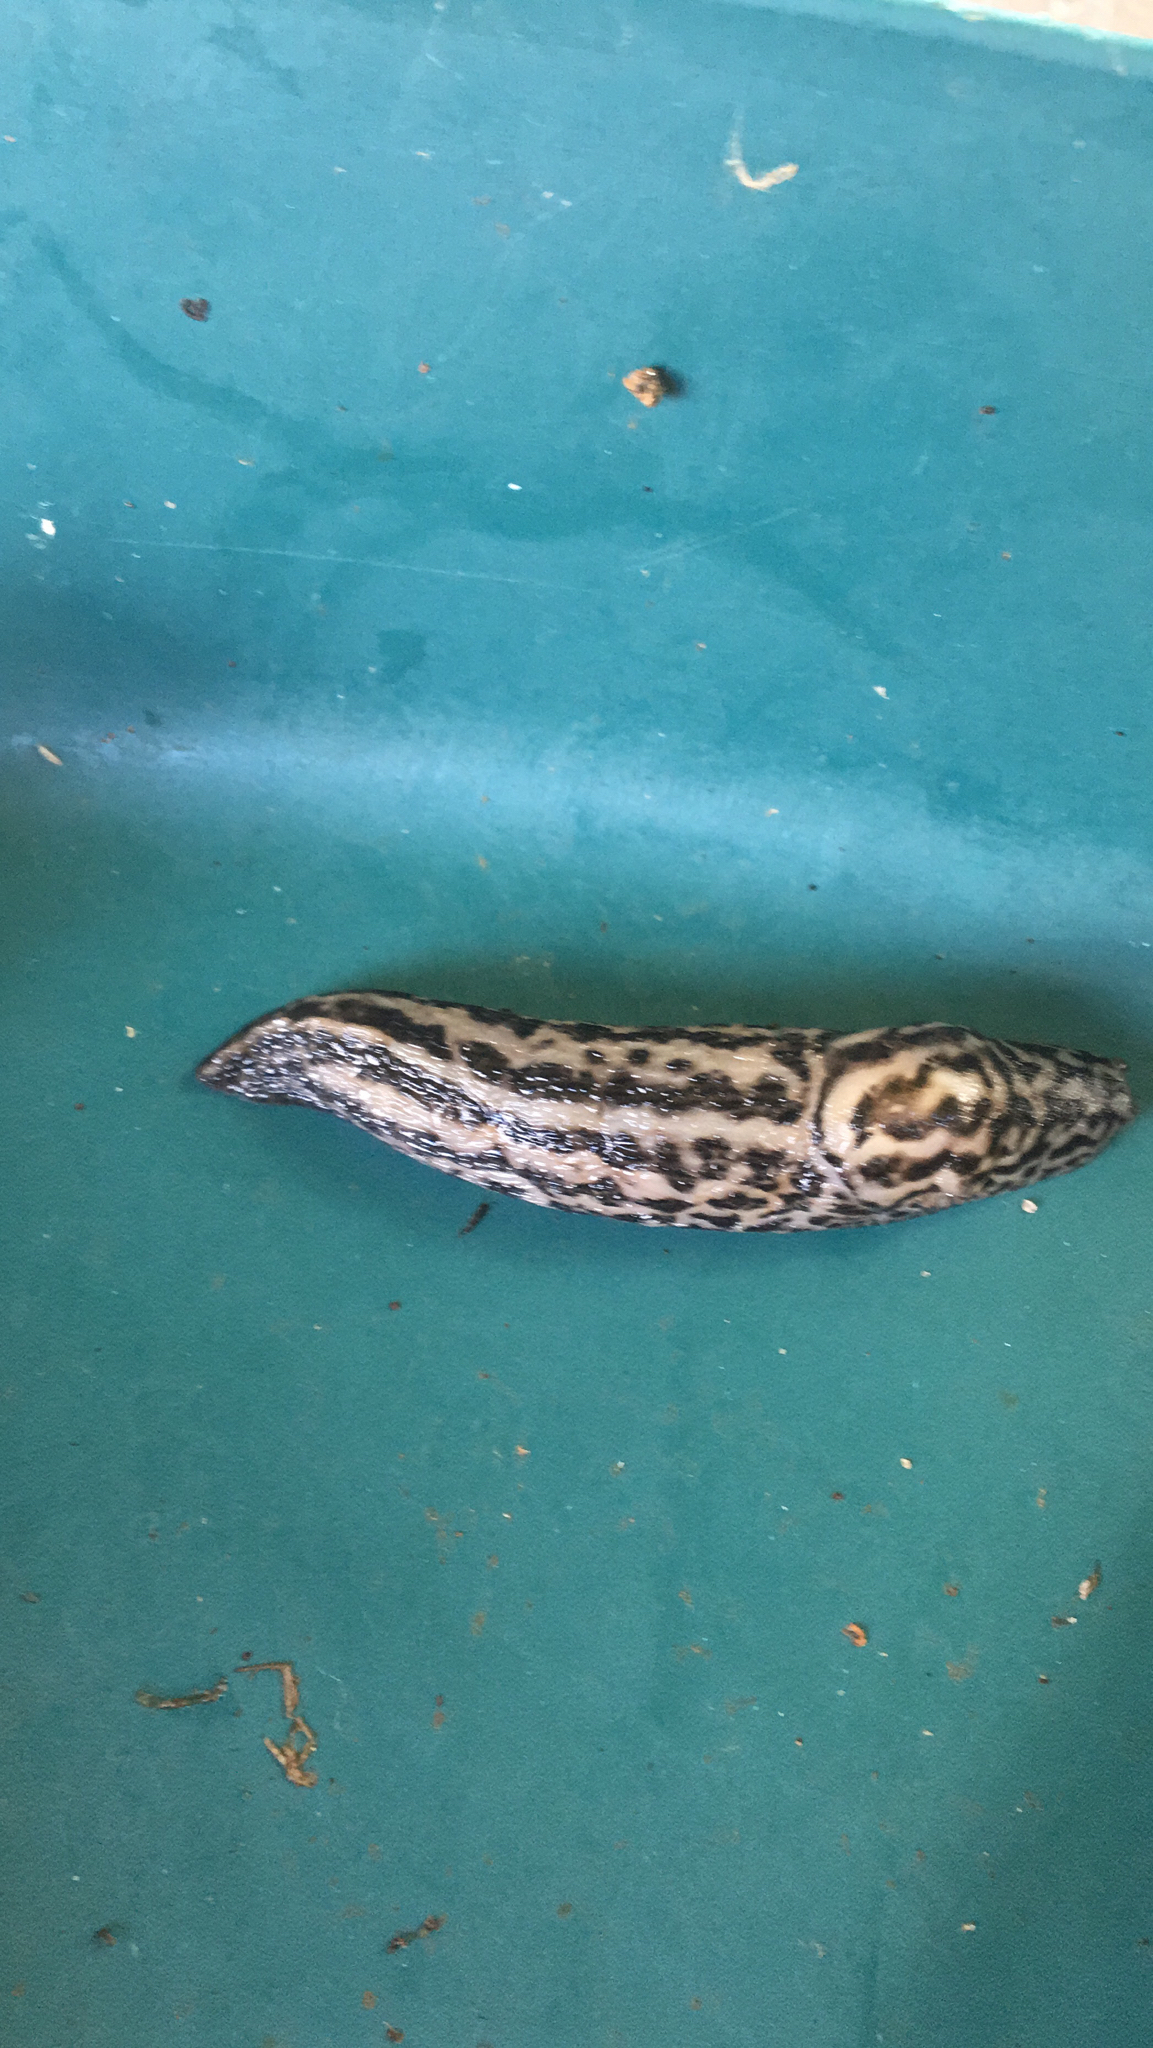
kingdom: Animalia
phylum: Mollusca
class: Gastropoda
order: Stylommatophora
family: Limacidae
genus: Limax
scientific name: Limax maximus
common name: Great grey slug
